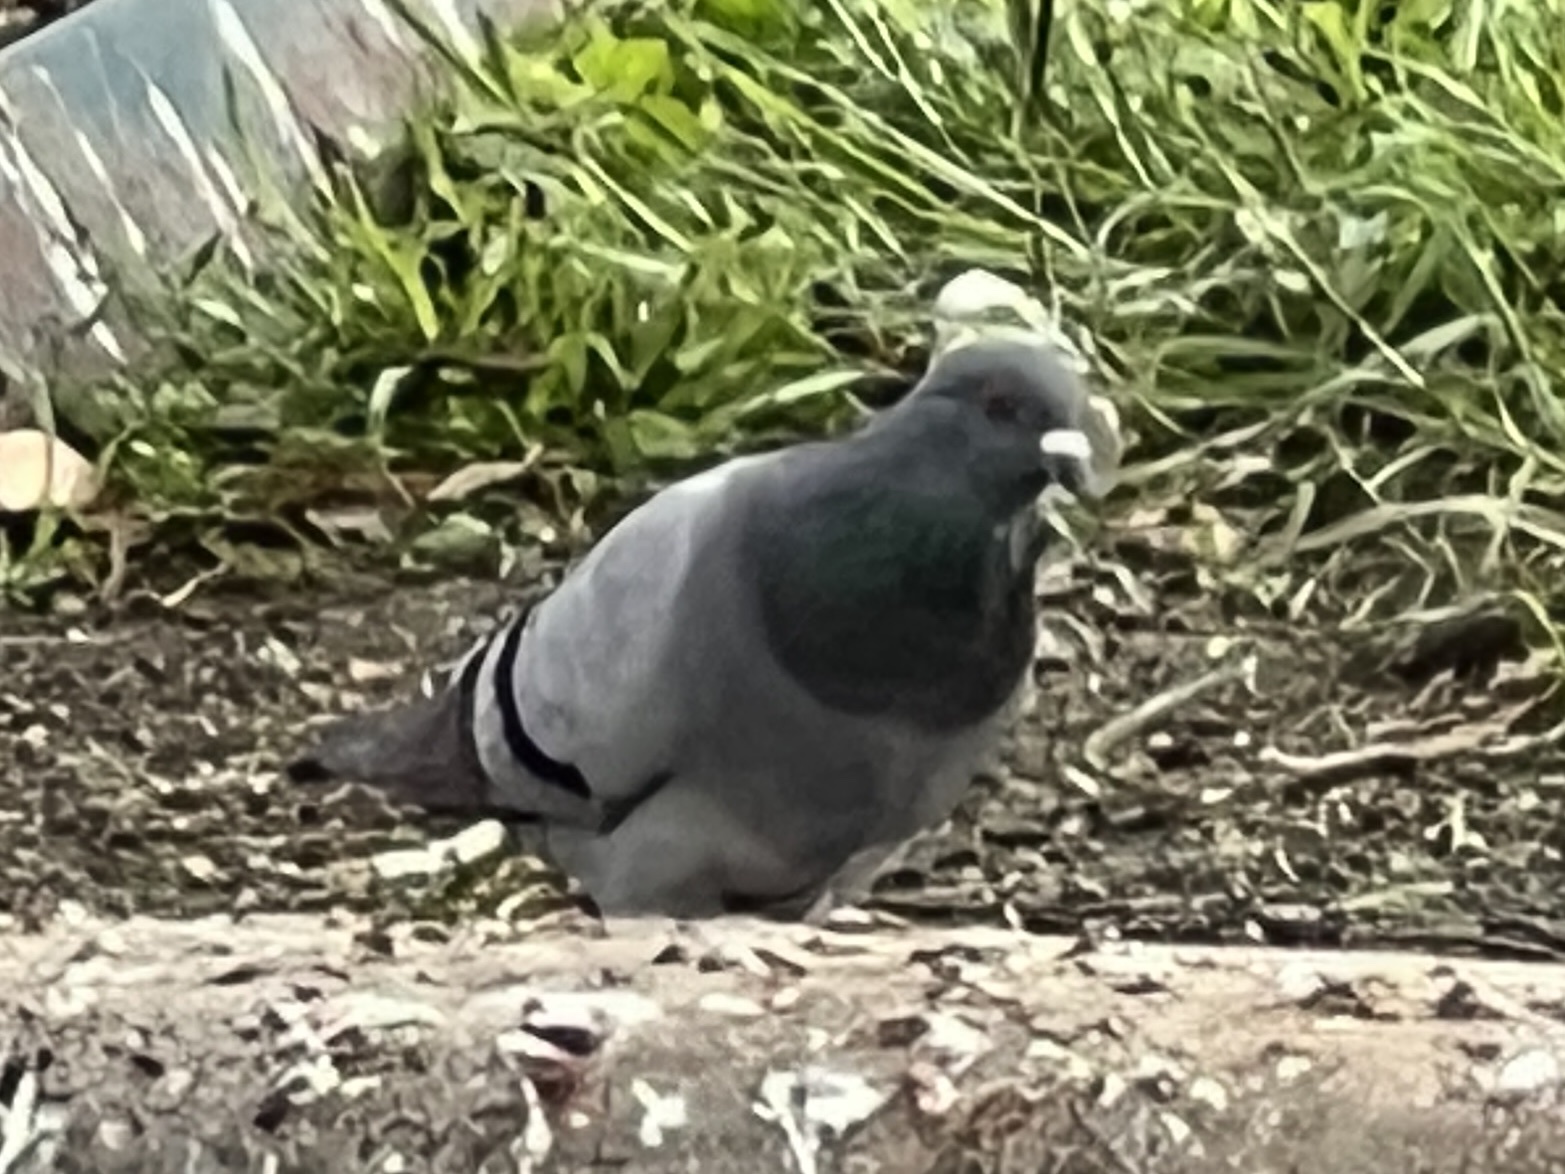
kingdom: Animalia
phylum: Chordata
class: Aves
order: Columbiformes
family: Columbidae
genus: Columba
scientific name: Columba livia
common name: Rock pigeon
